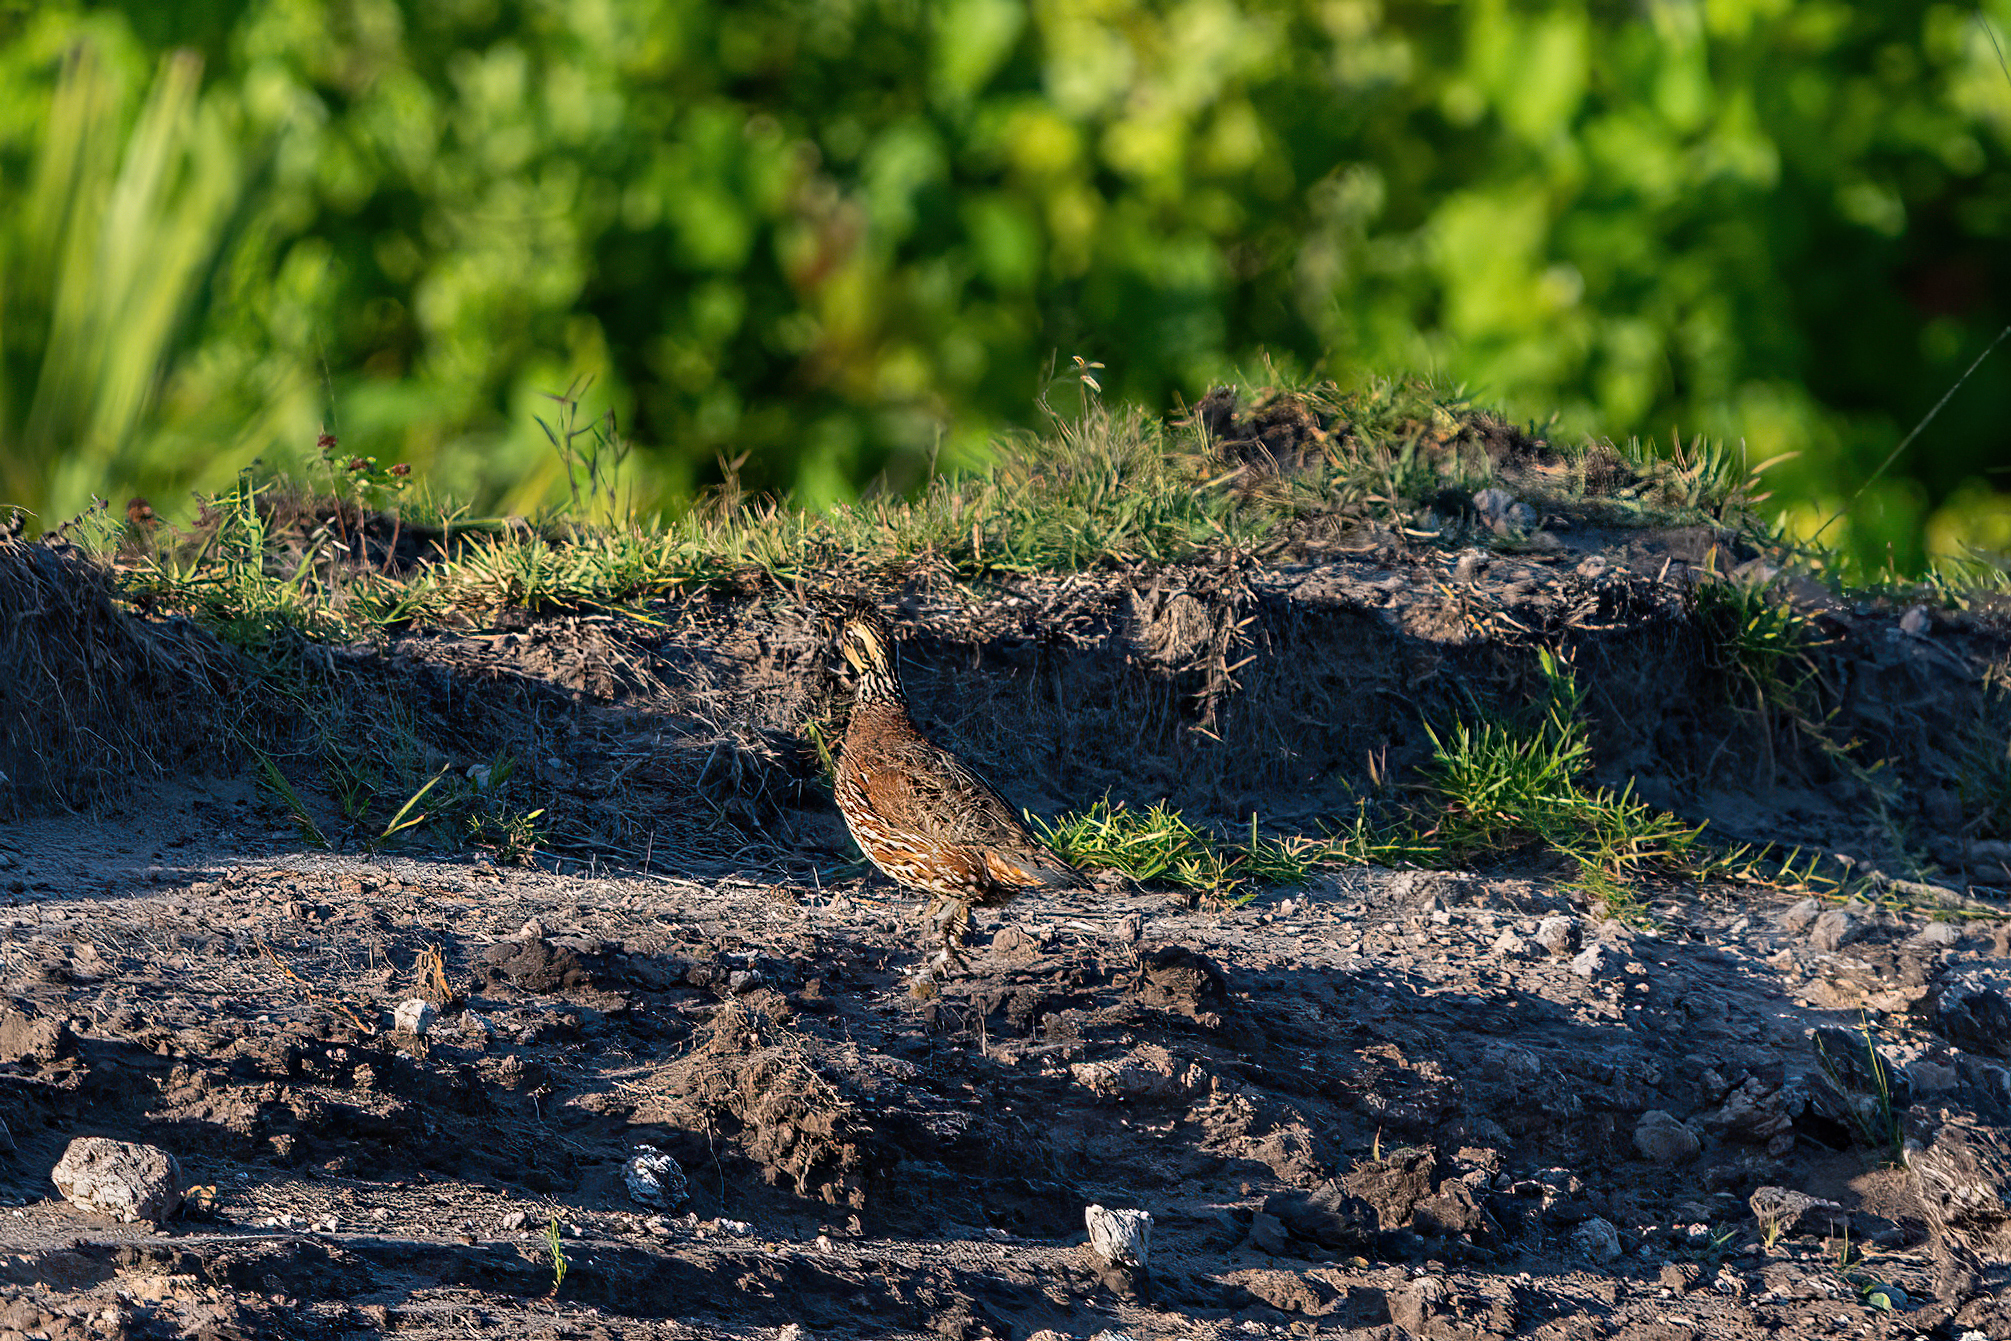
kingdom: Animalia
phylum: Chordata
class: Aves
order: Galliformes
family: Odontophoridae
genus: Colinus
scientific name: Colinus virginianus
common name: Northern bobwhite
